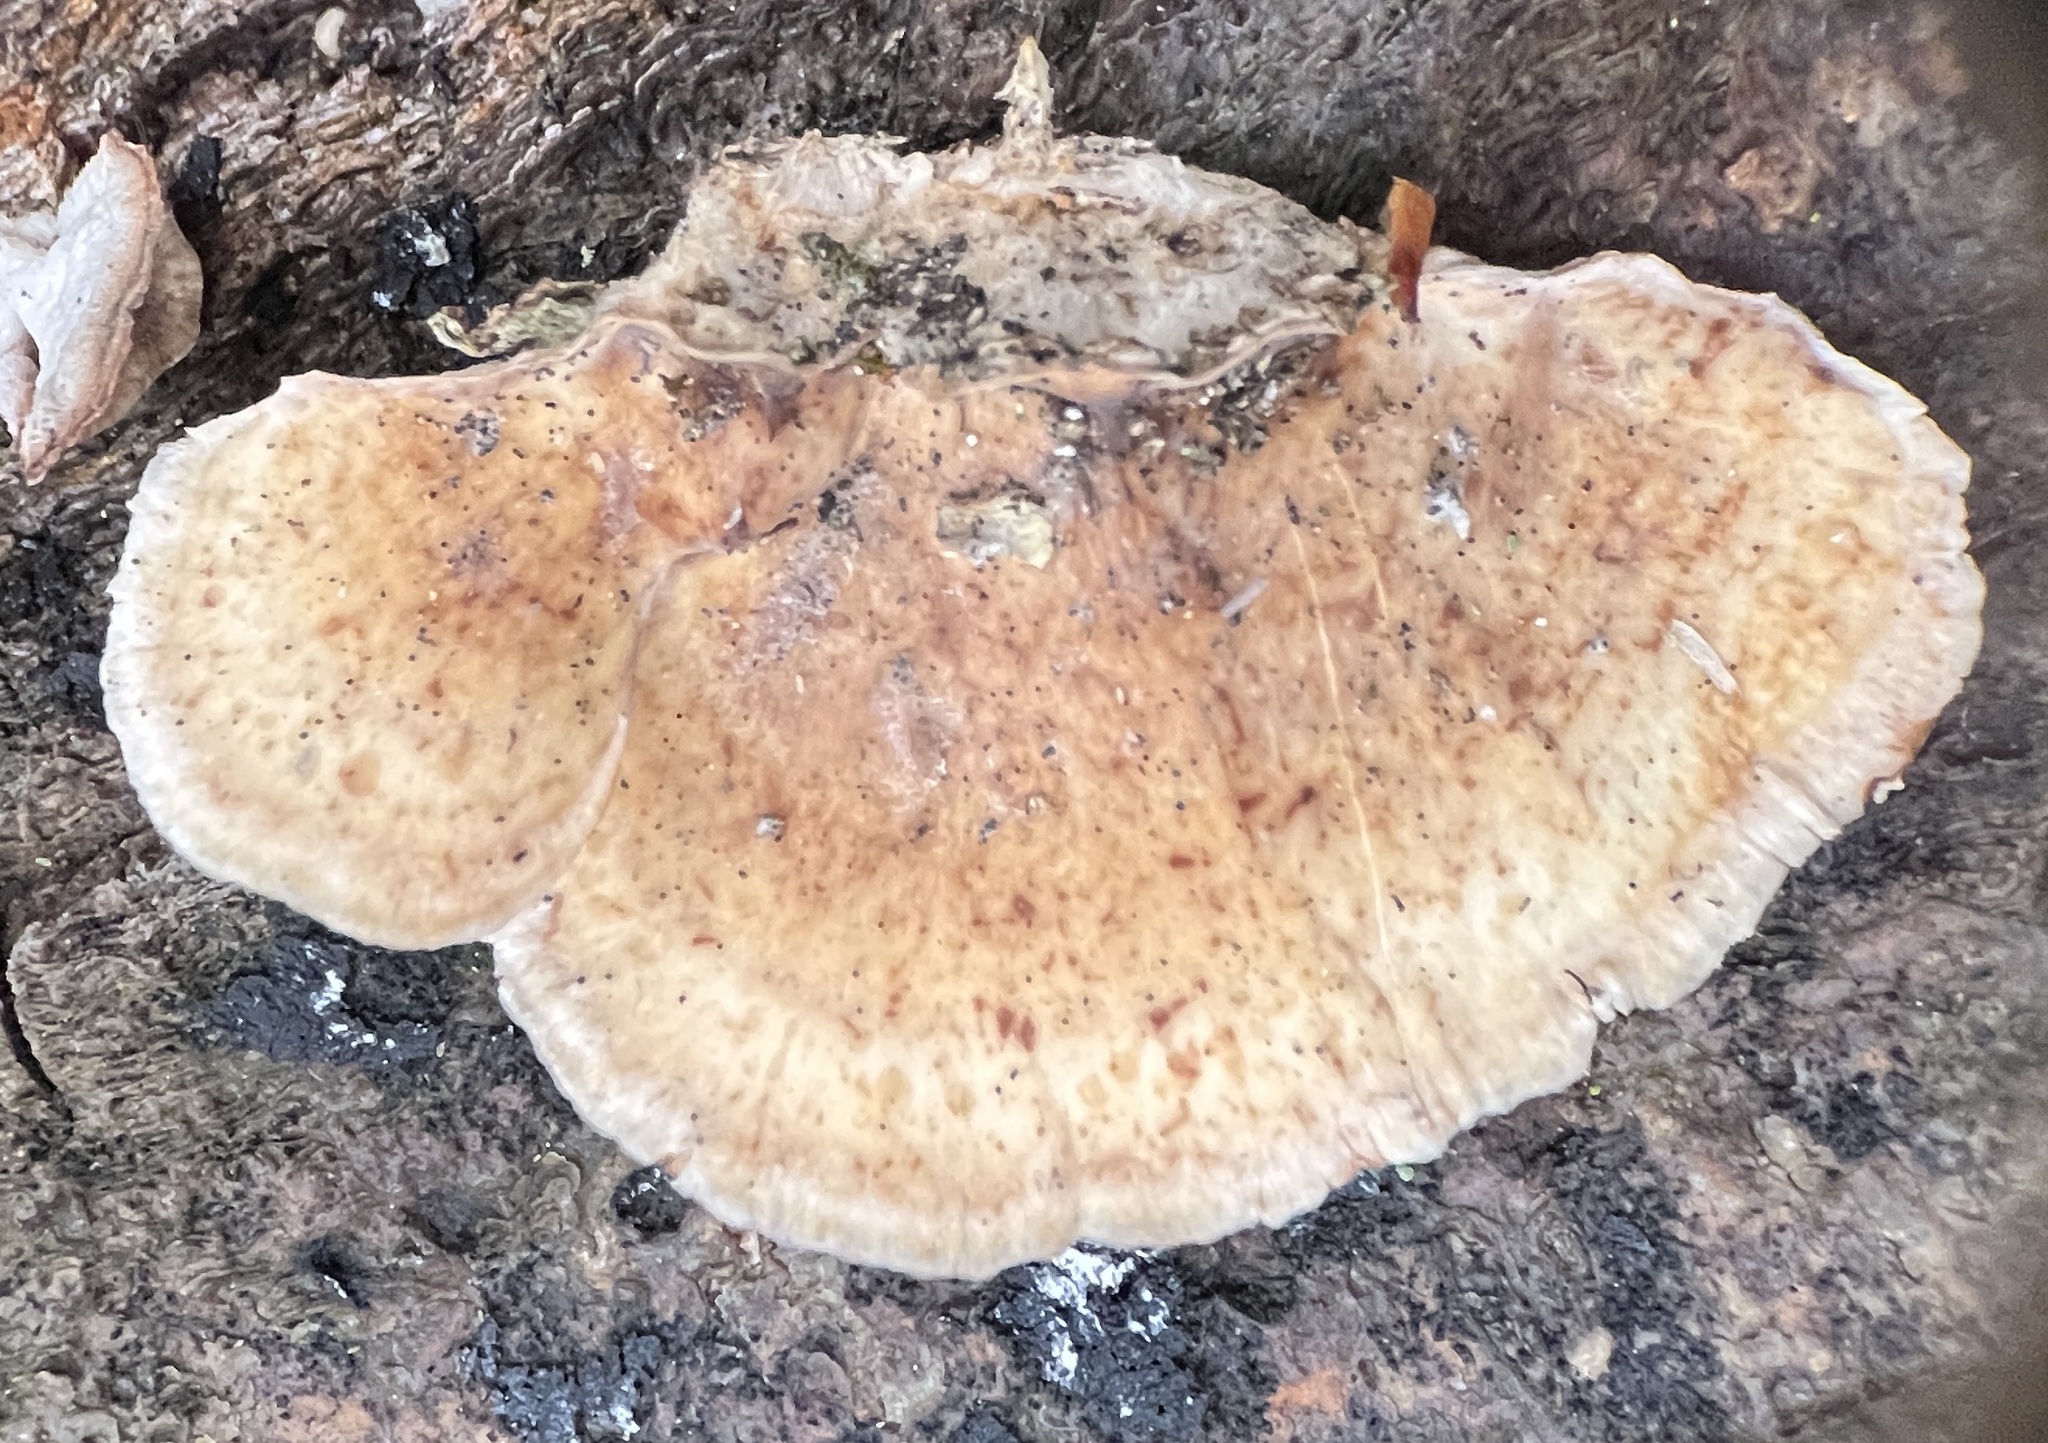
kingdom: Fungi
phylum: Basidiomycota
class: Agaricomycetes
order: Russulales
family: Stereaceae
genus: Stereum
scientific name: Stereum lobatum
